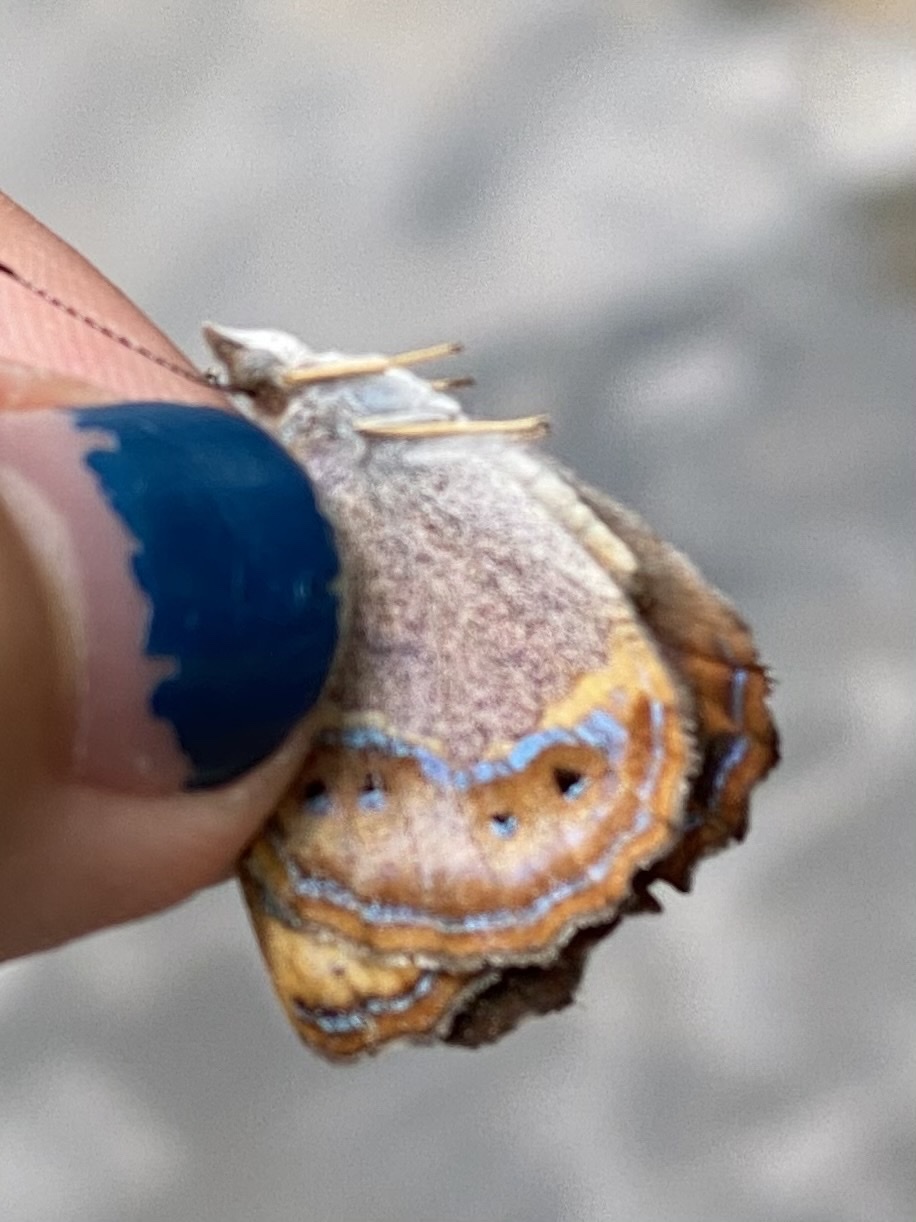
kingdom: Animalia
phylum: Arthropoda
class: Insecta
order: Lepidoptera
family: Nymphalidae
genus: Bolboneura
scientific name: Bolboneura sylphis
